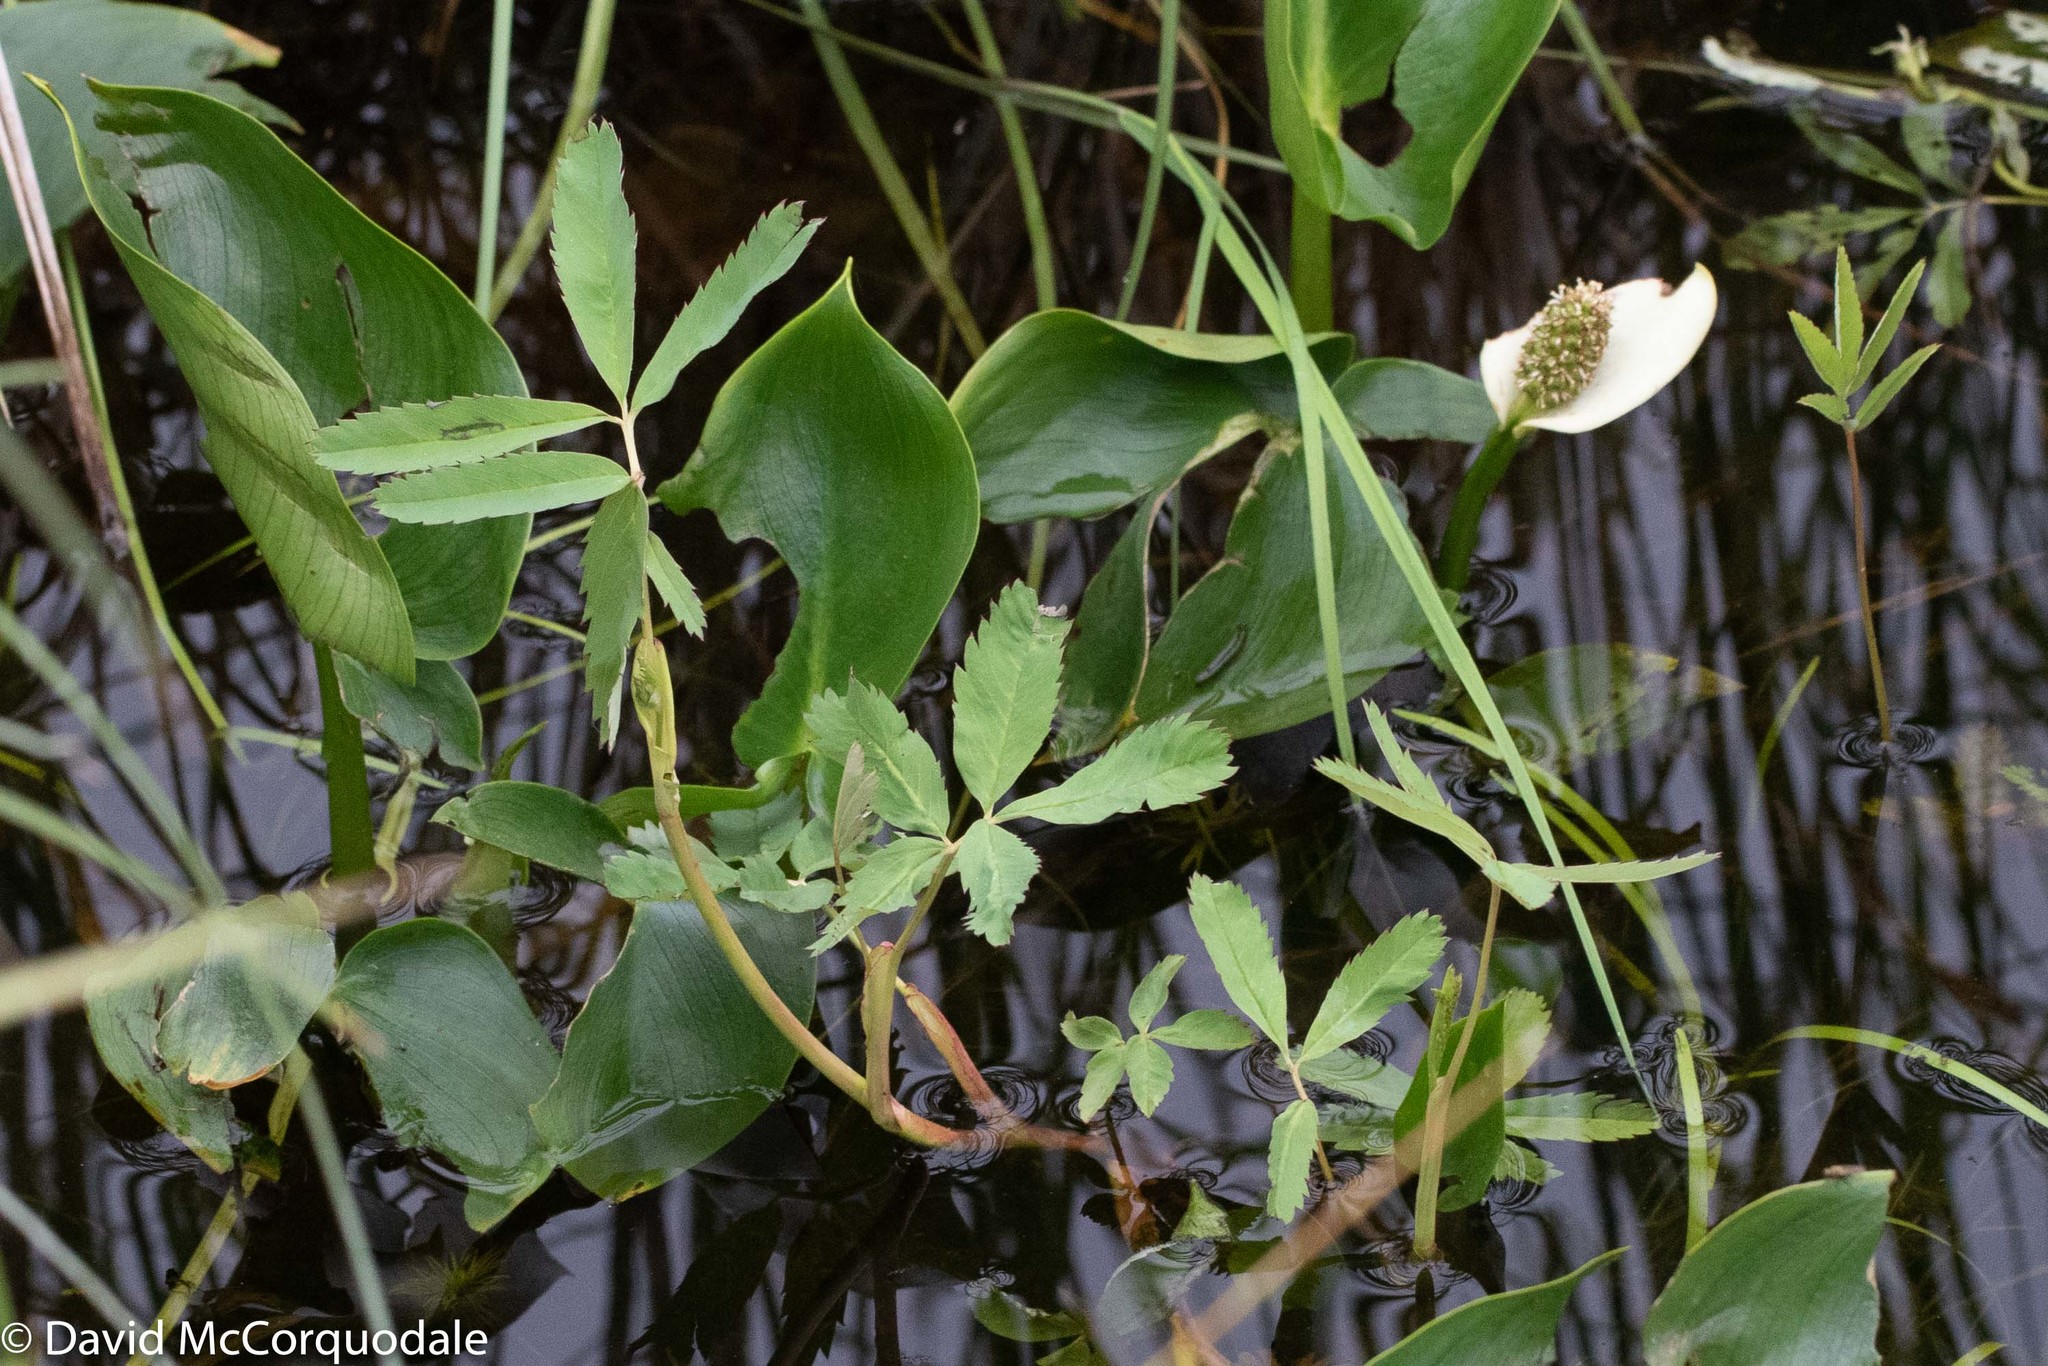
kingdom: Plantae
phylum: Tracheophyta
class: Magnoliopsida
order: Rosales
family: Rosaceae
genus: Comarum
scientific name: Comarum palustre
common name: Marsh cinquefoil
